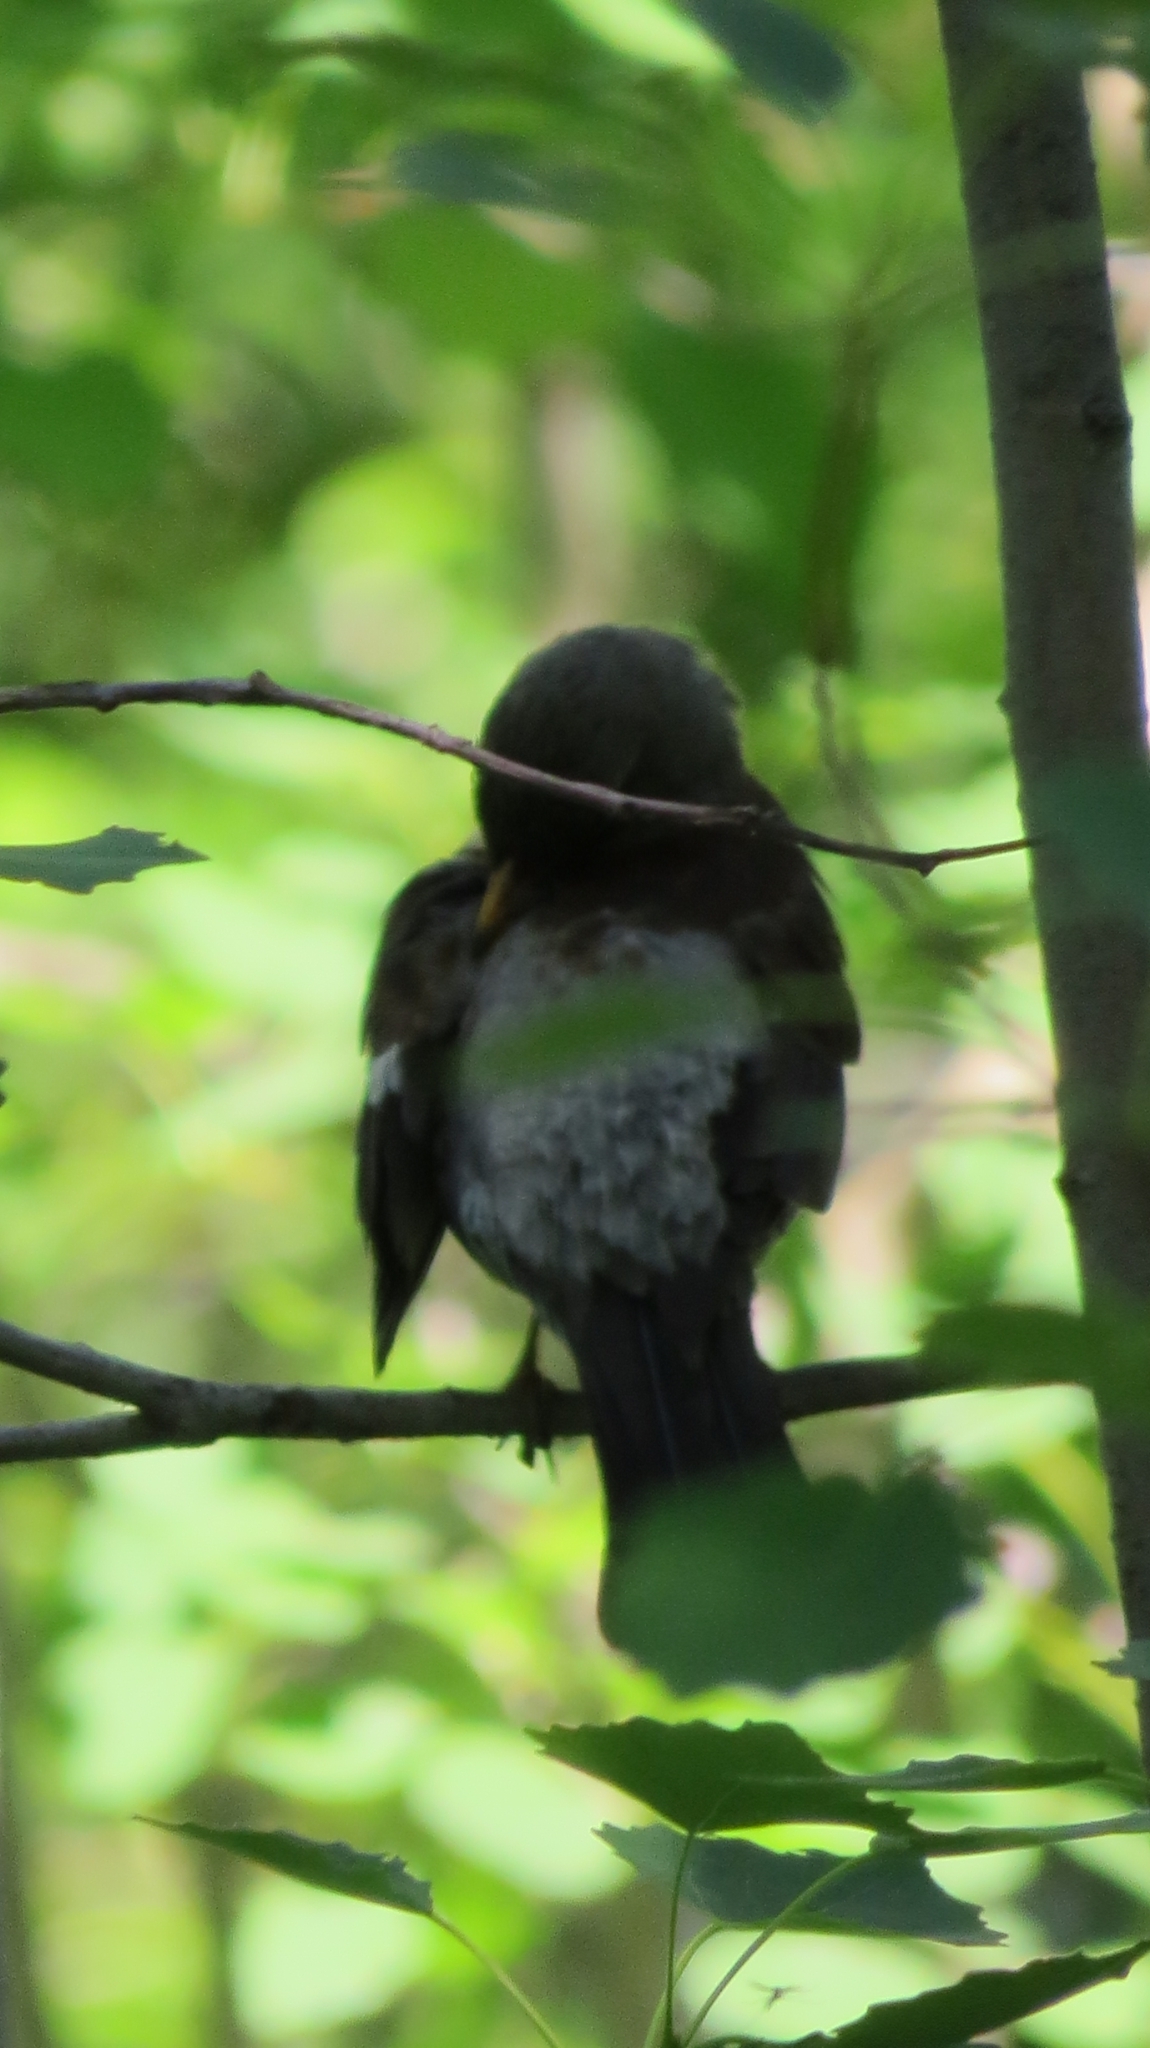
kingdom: Animalia
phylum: Chordata
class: Aves
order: Passeriformes
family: Turdidae
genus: Turdus
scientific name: Turdus pilaris
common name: Fieldfare
